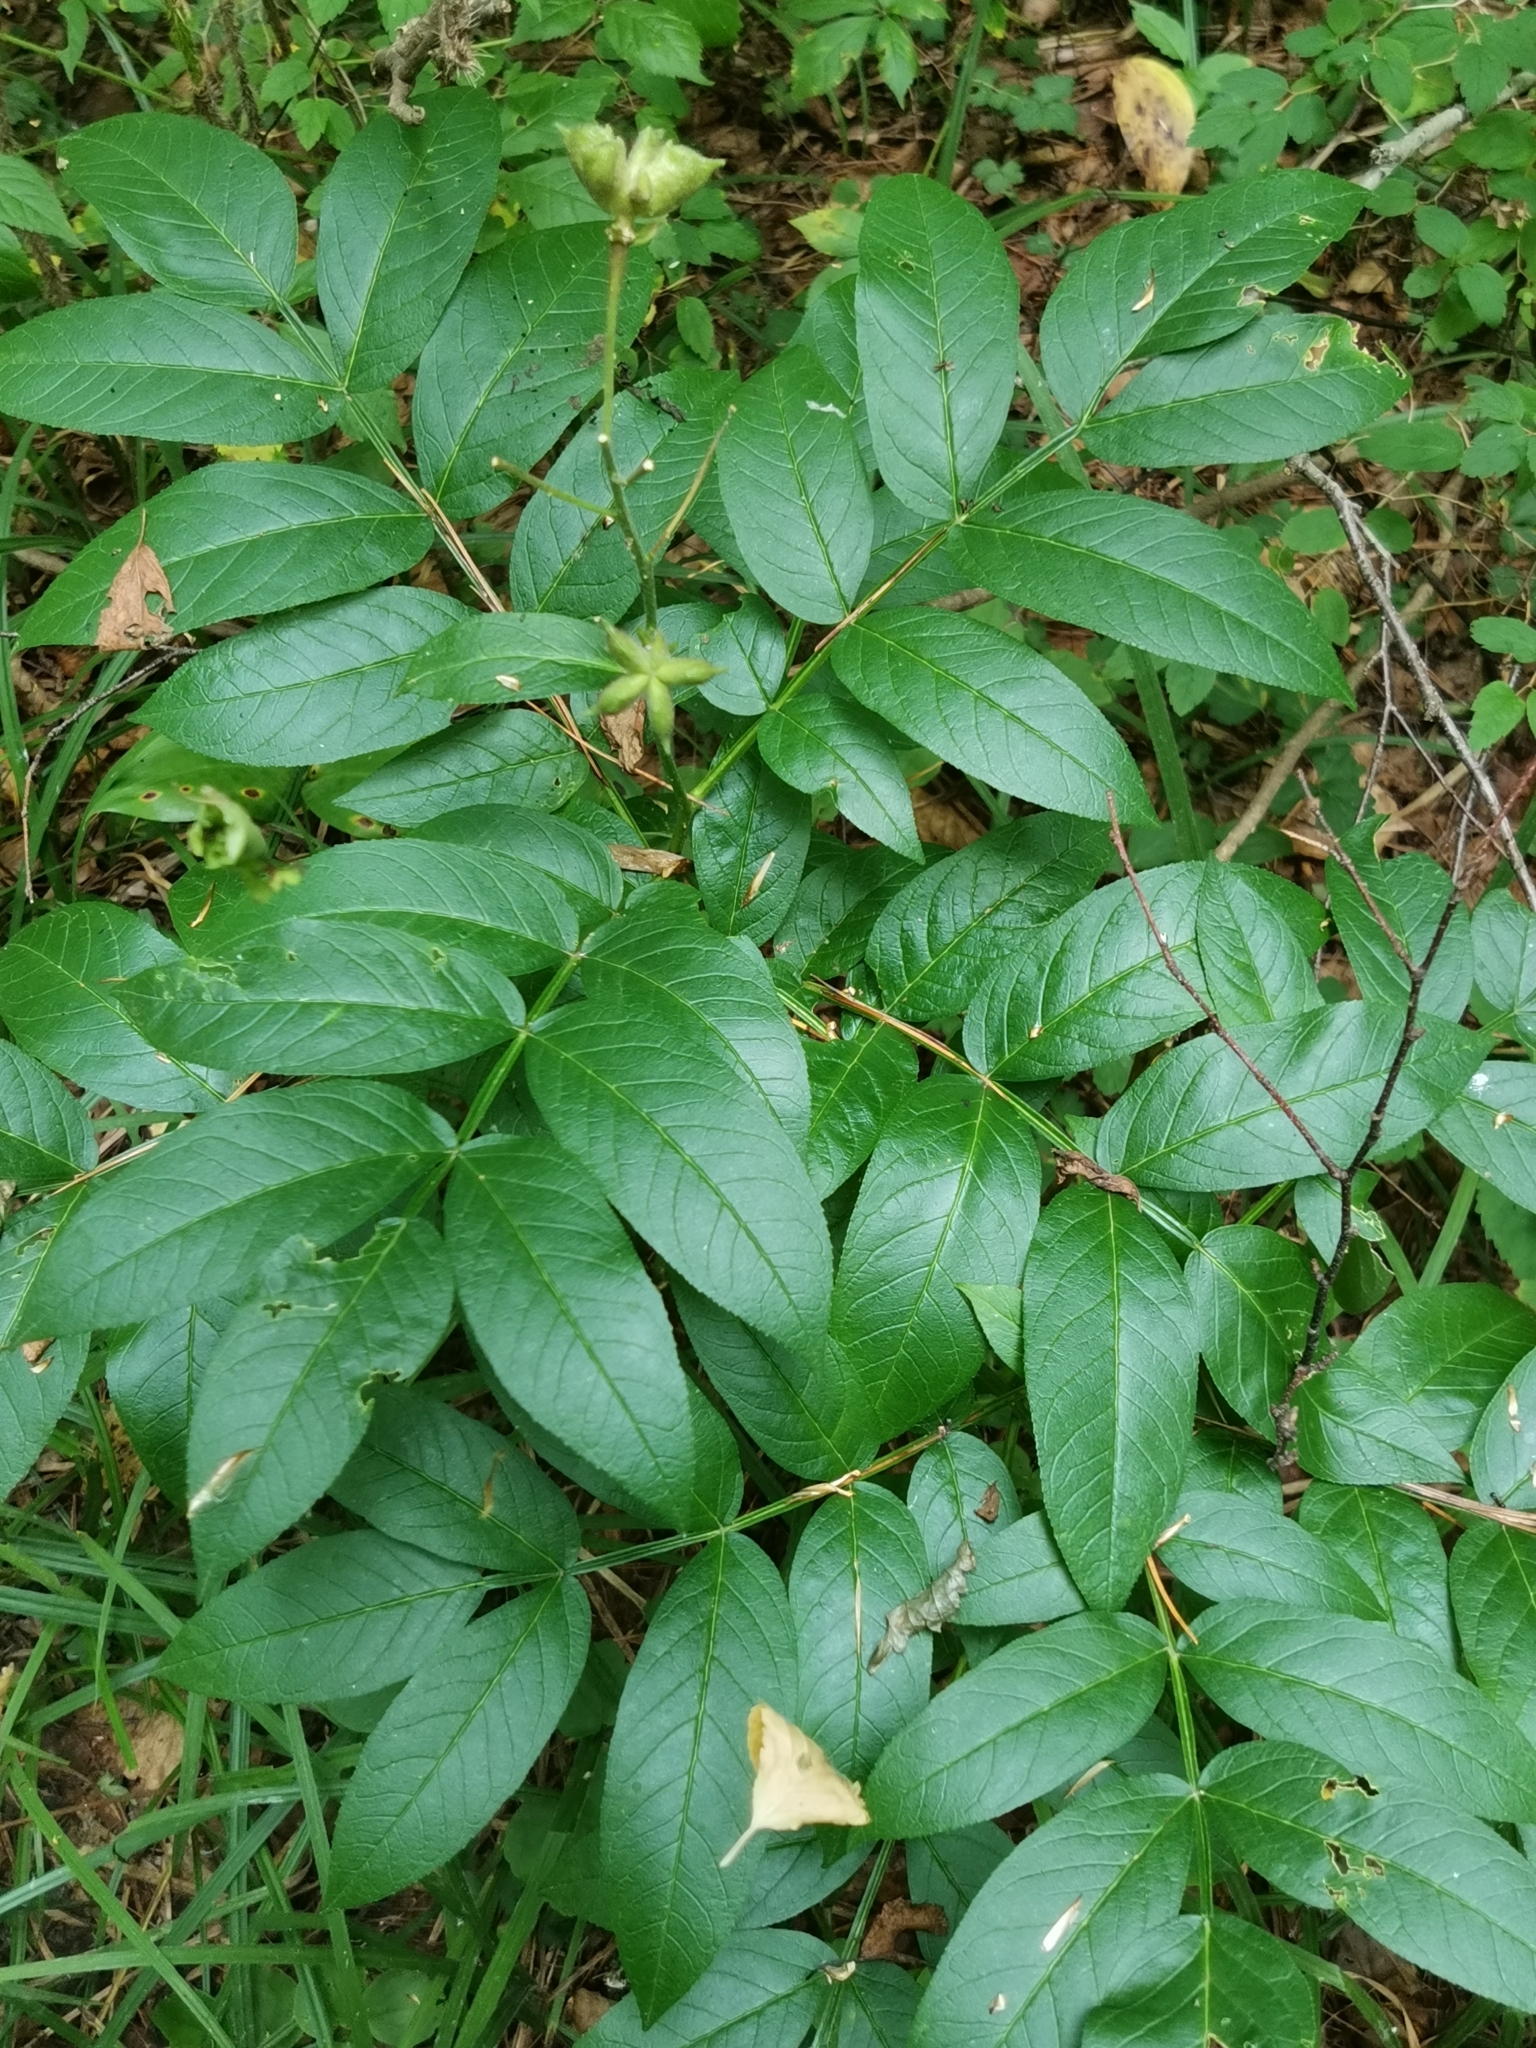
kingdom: Plantae
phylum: Tracheophyta
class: Magnoliopsida
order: Sapindales
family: Rutaceae
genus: Dictamnus
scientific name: Dictamnus dasycarpus
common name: Dense-fruit dittany
